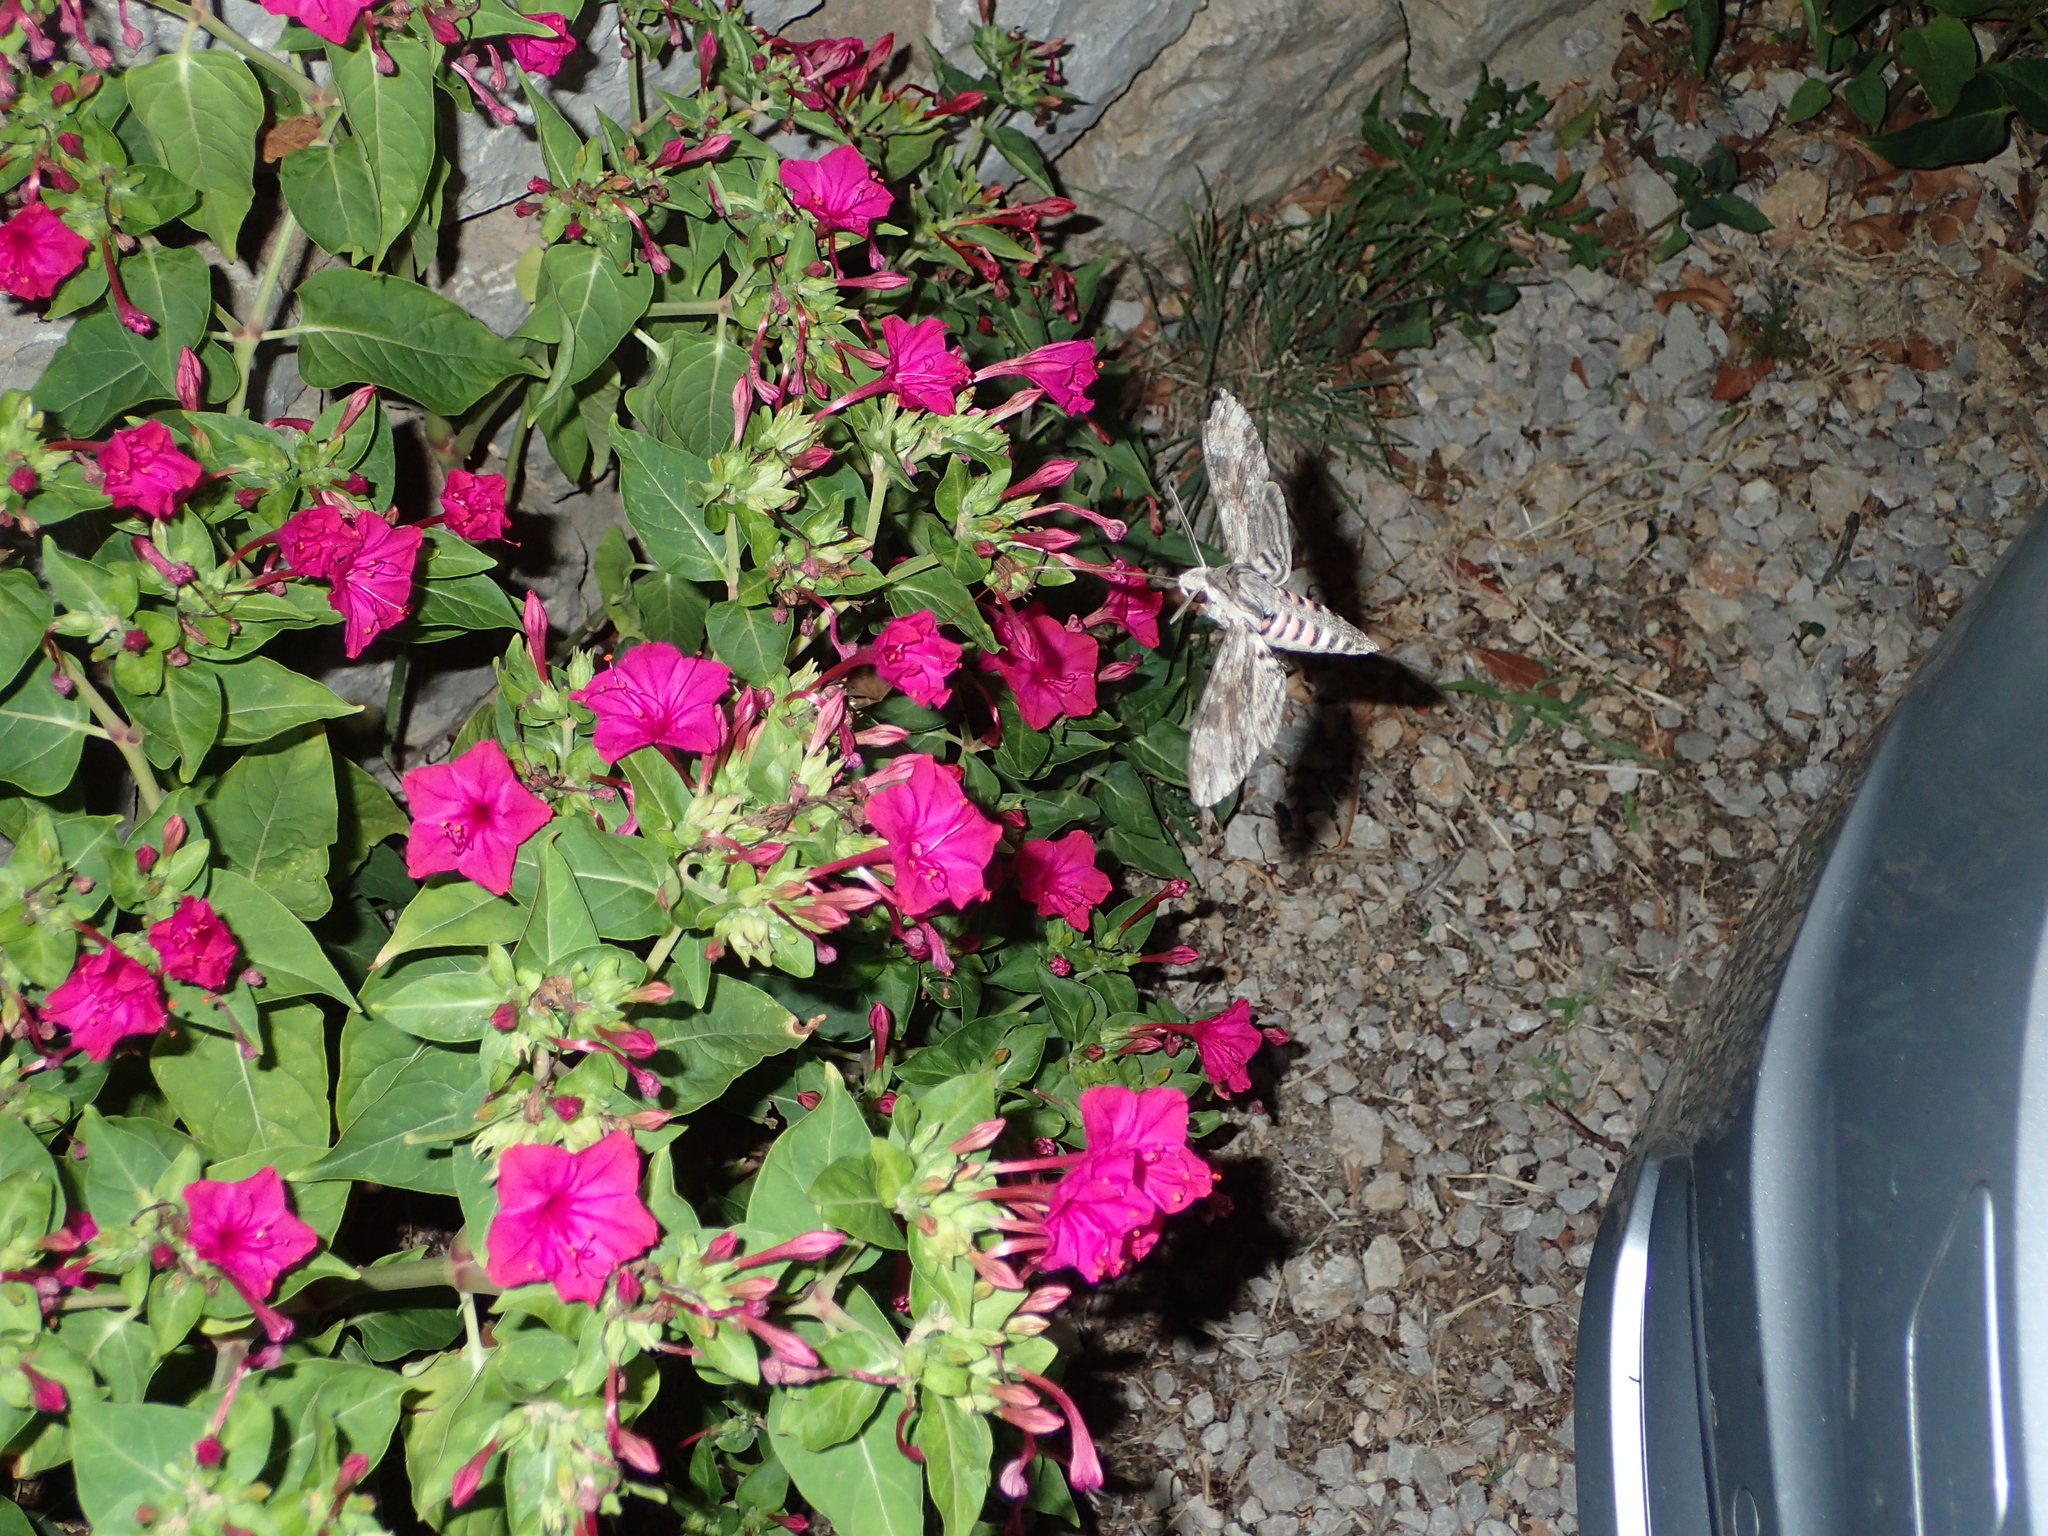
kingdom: Animalia
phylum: Arthropoda
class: Insecta
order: Lepidoptera
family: Sphingidae
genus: Agrius
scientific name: Agrius convolvuli
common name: Convolvulus hawkmoth
